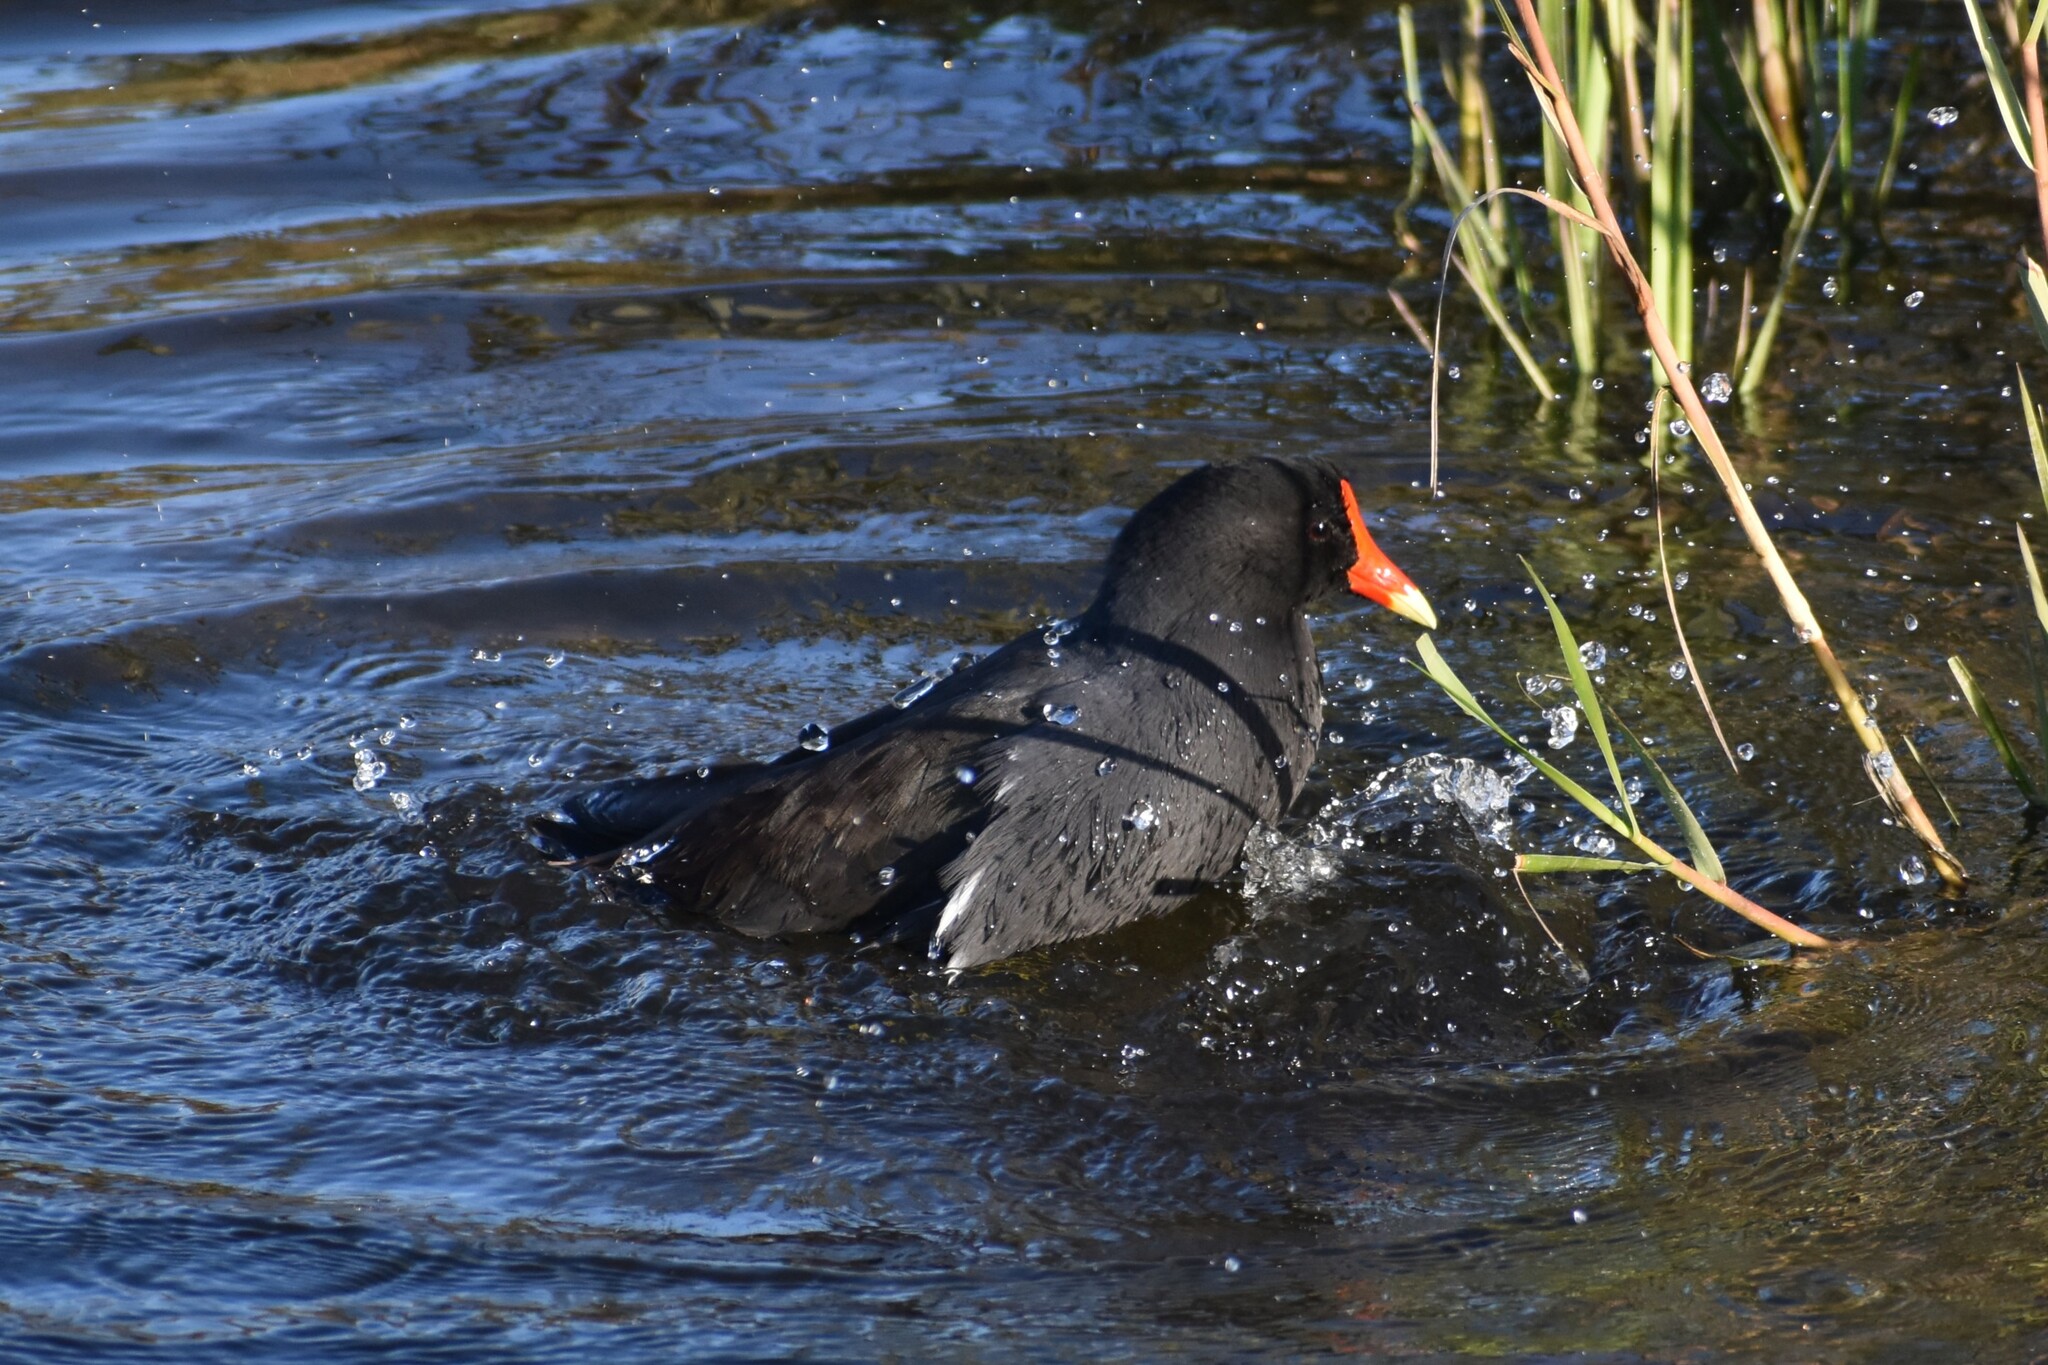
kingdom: Animalia
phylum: Chordata
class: Aves
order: Gruiformes
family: Rallidae
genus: Gallinula
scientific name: Gallinula chloropus
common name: Common moorhen
